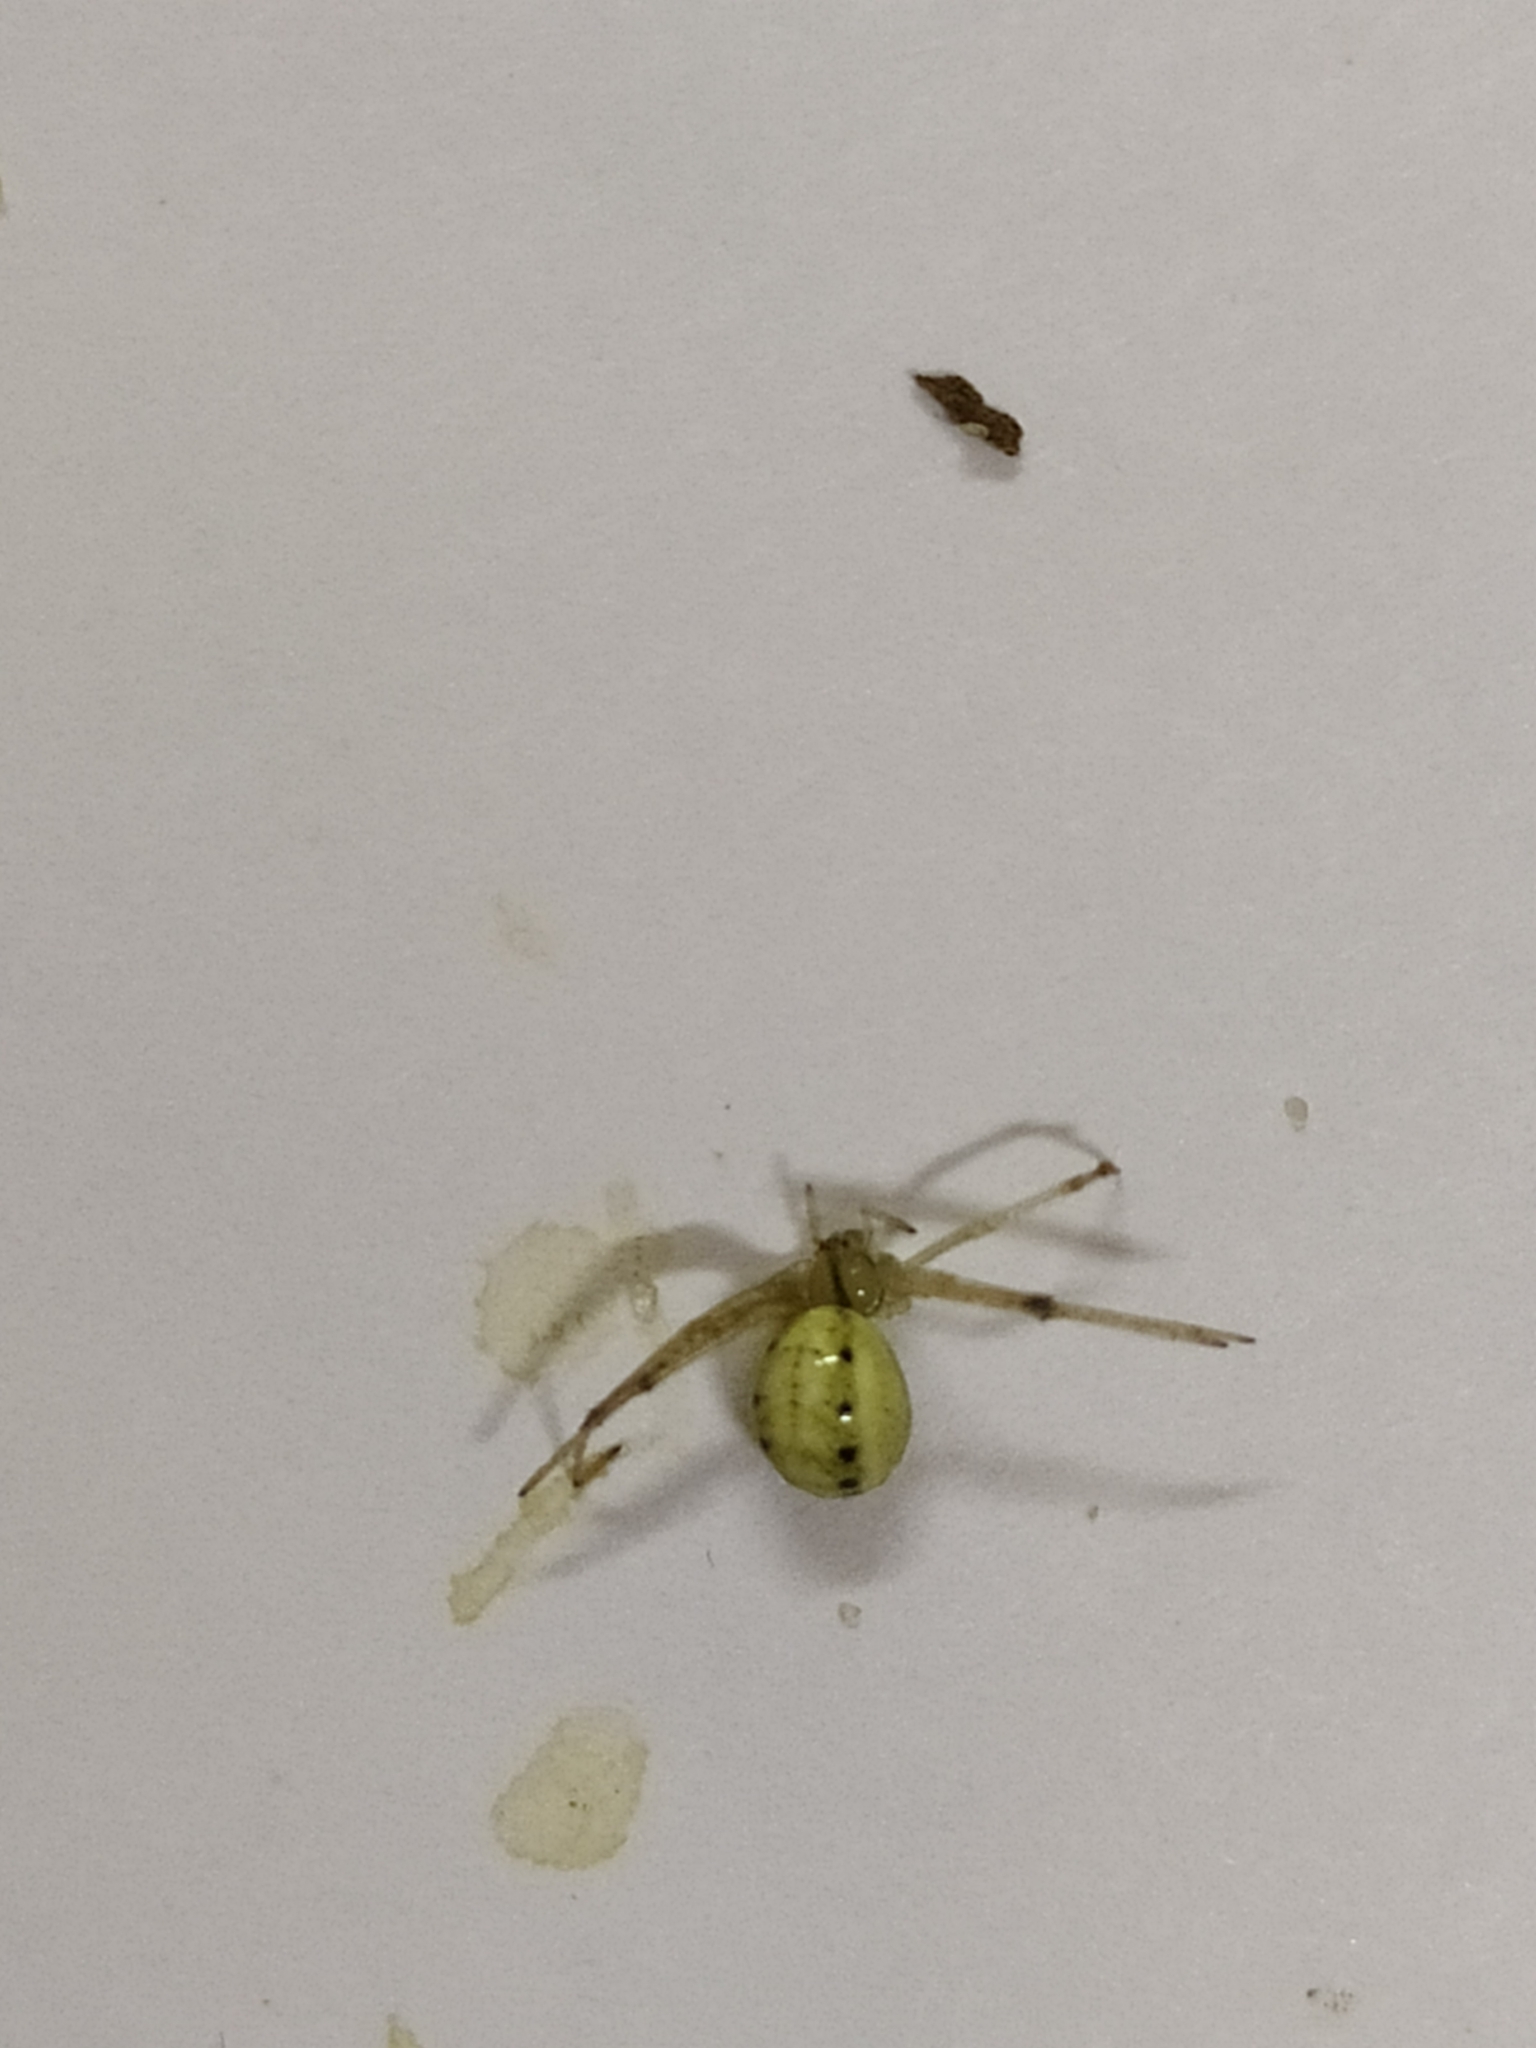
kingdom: Animalia
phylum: Arthropoda
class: Arachnida
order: Araneae
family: Theridiidae
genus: Enoplognatha
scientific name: Enoplognatha ovata
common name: Common candy-striped spider
